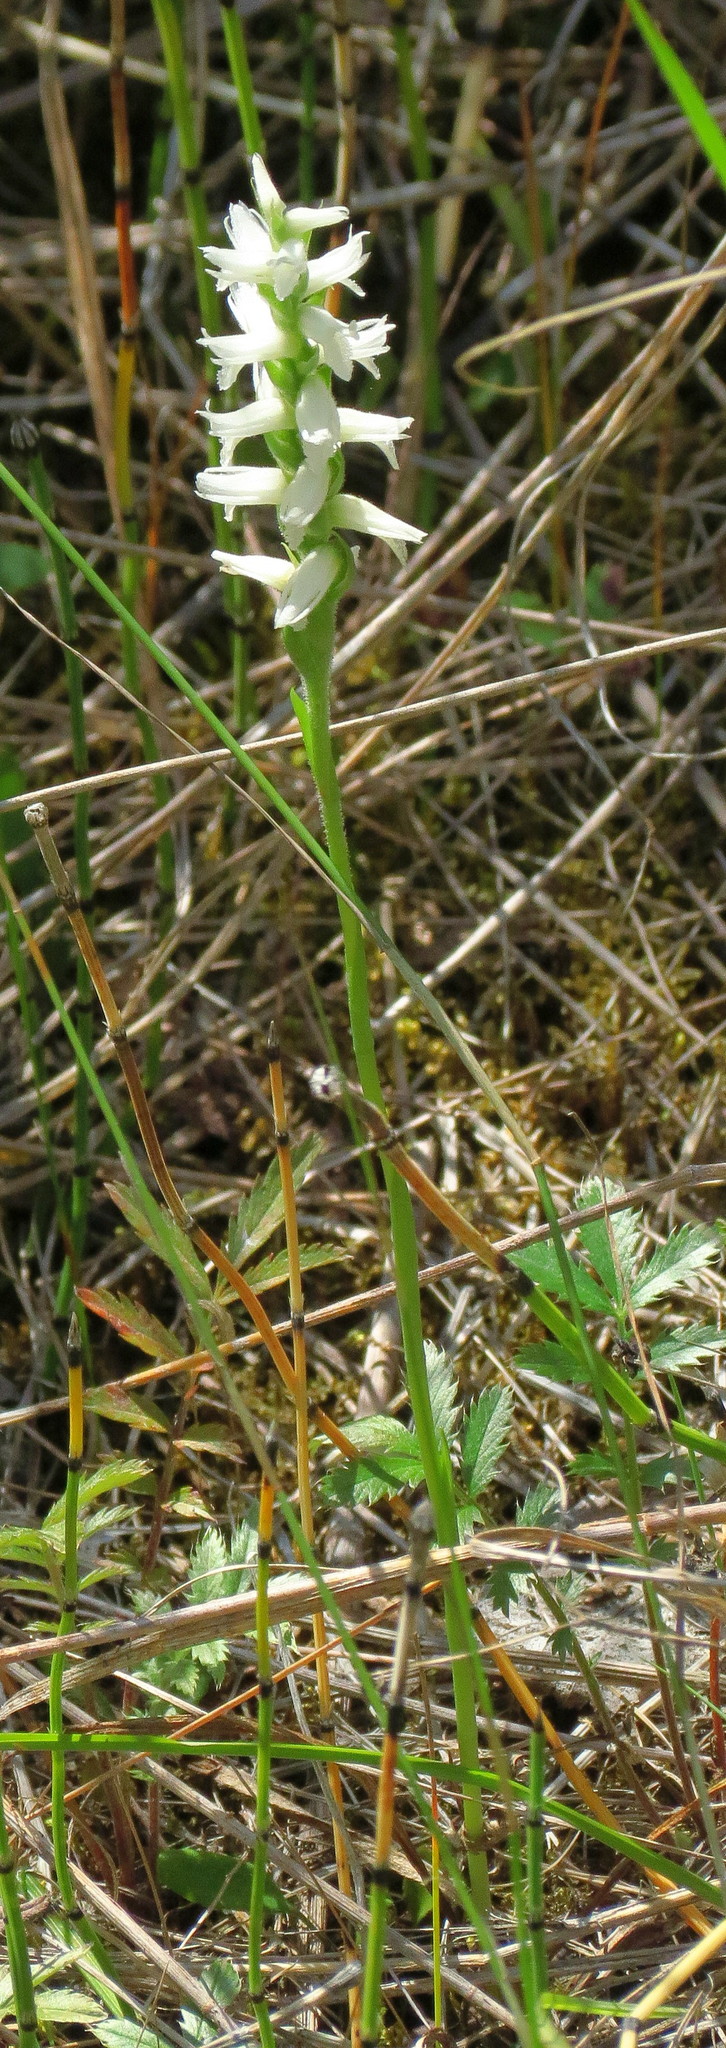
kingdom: Plantae
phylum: Tracheophyta
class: Liliopsida
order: Asparagales
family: Orchidaceae
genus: Spiranthes
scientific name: Spiranthes incurva
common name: Sphinx ladies'-tresses
